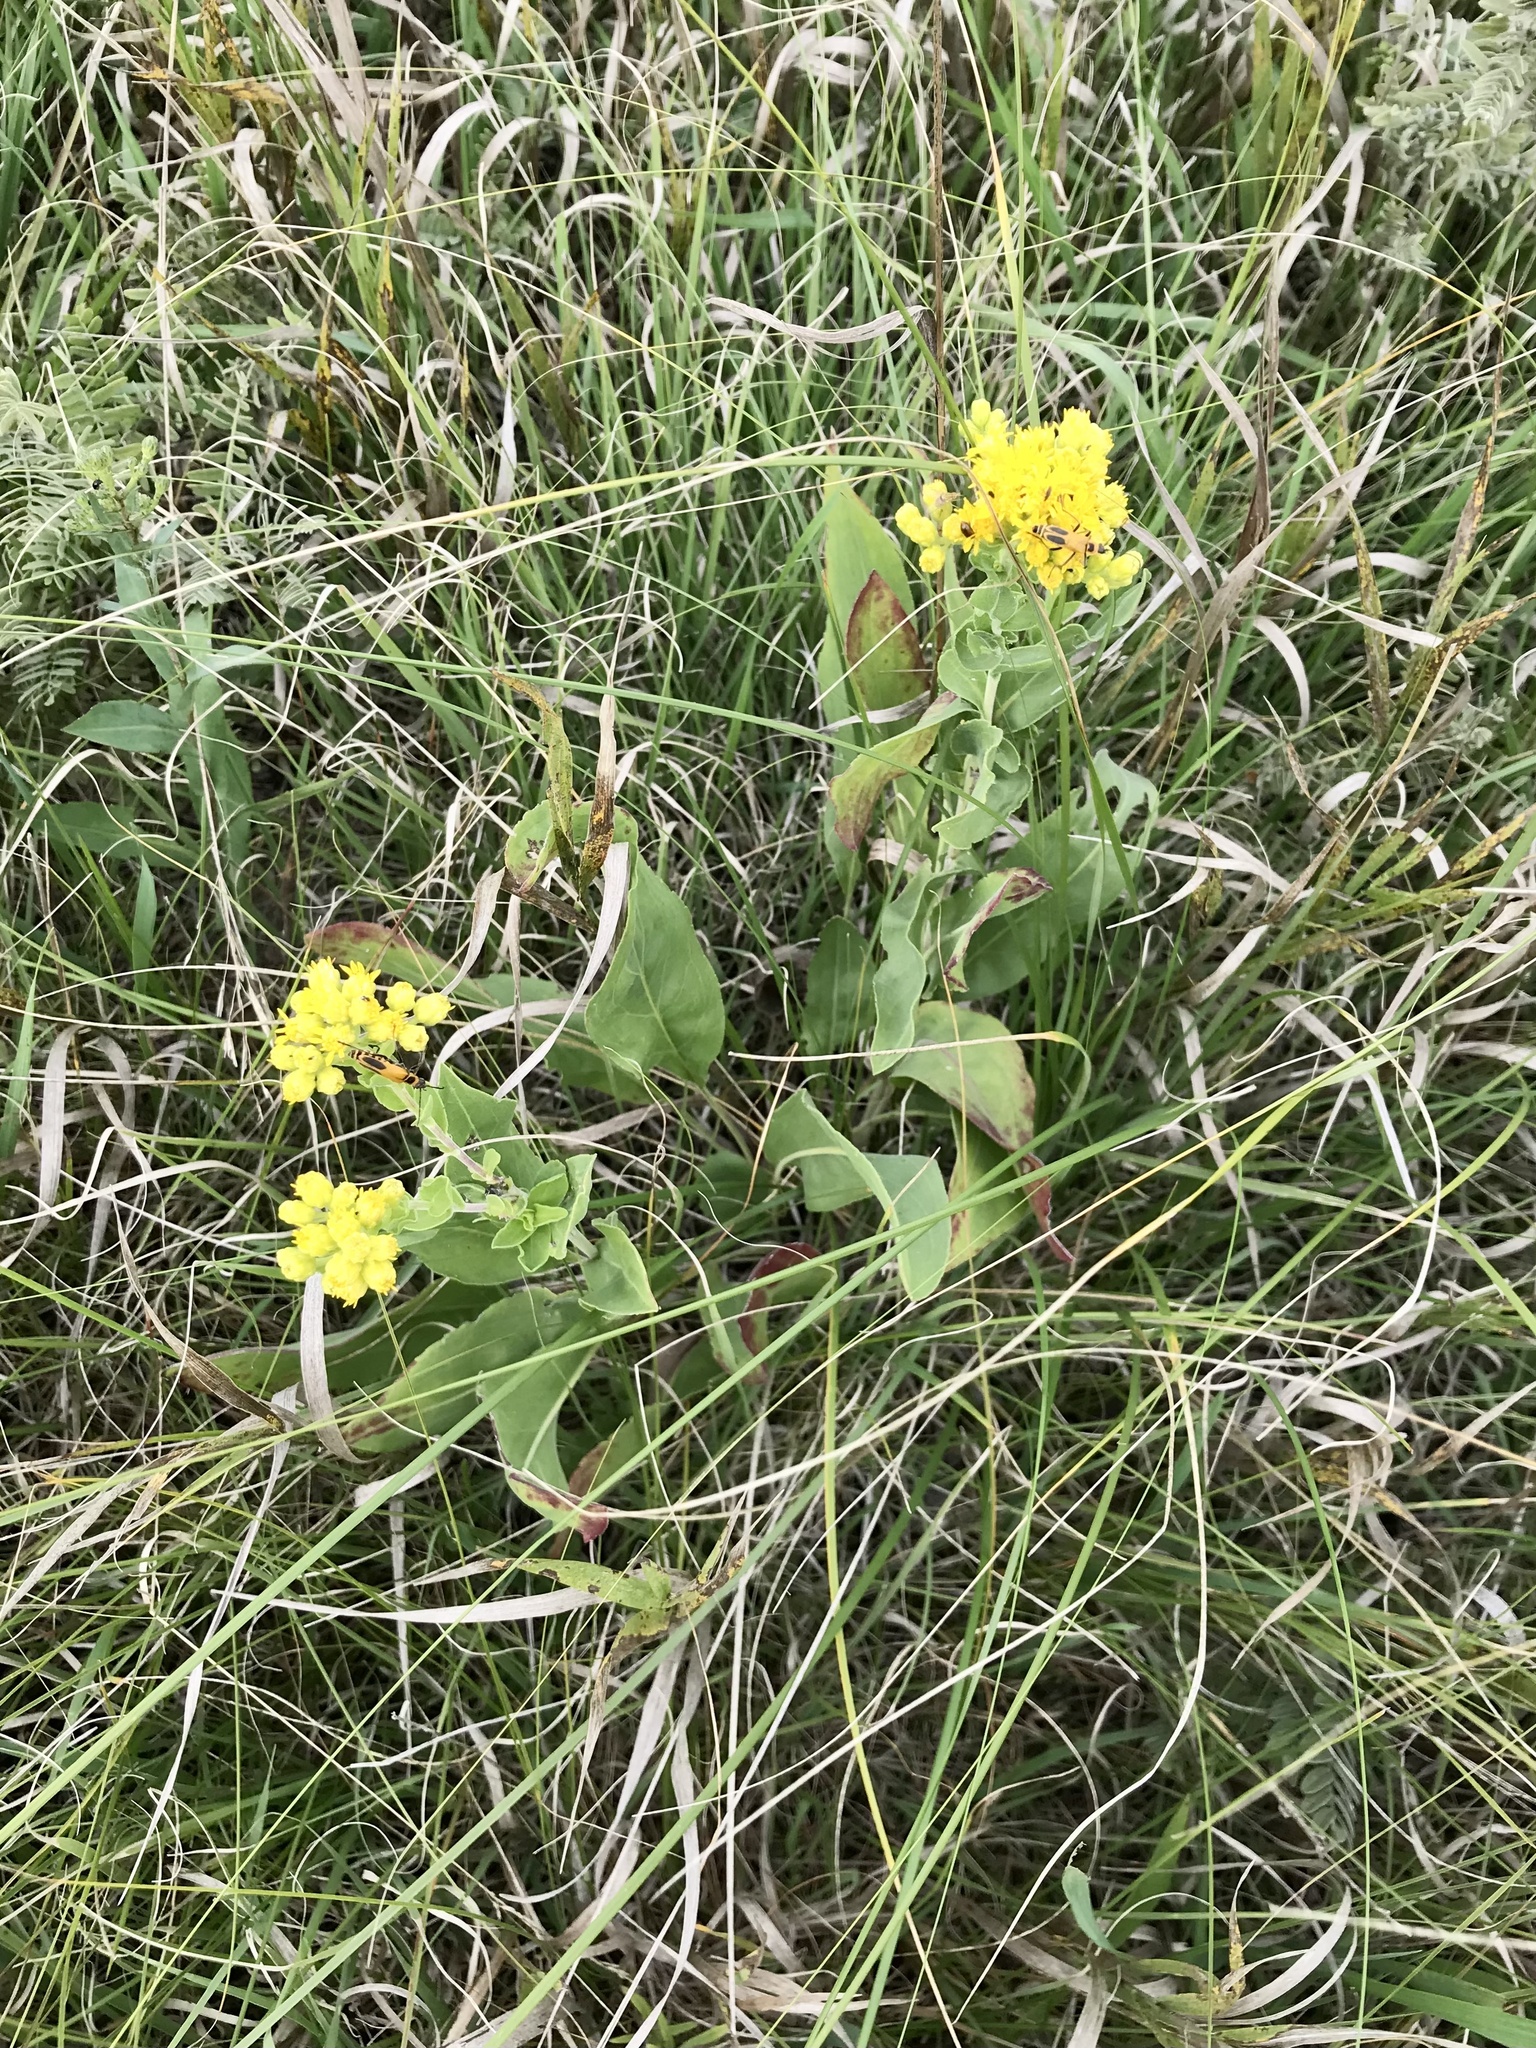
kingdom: Plantae
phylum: Tracheophyta
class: Magnoliopsida
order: Asterales
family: Asteraceae
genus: Solidago
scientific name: Solidago rigida
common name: Rigid goldenrod
